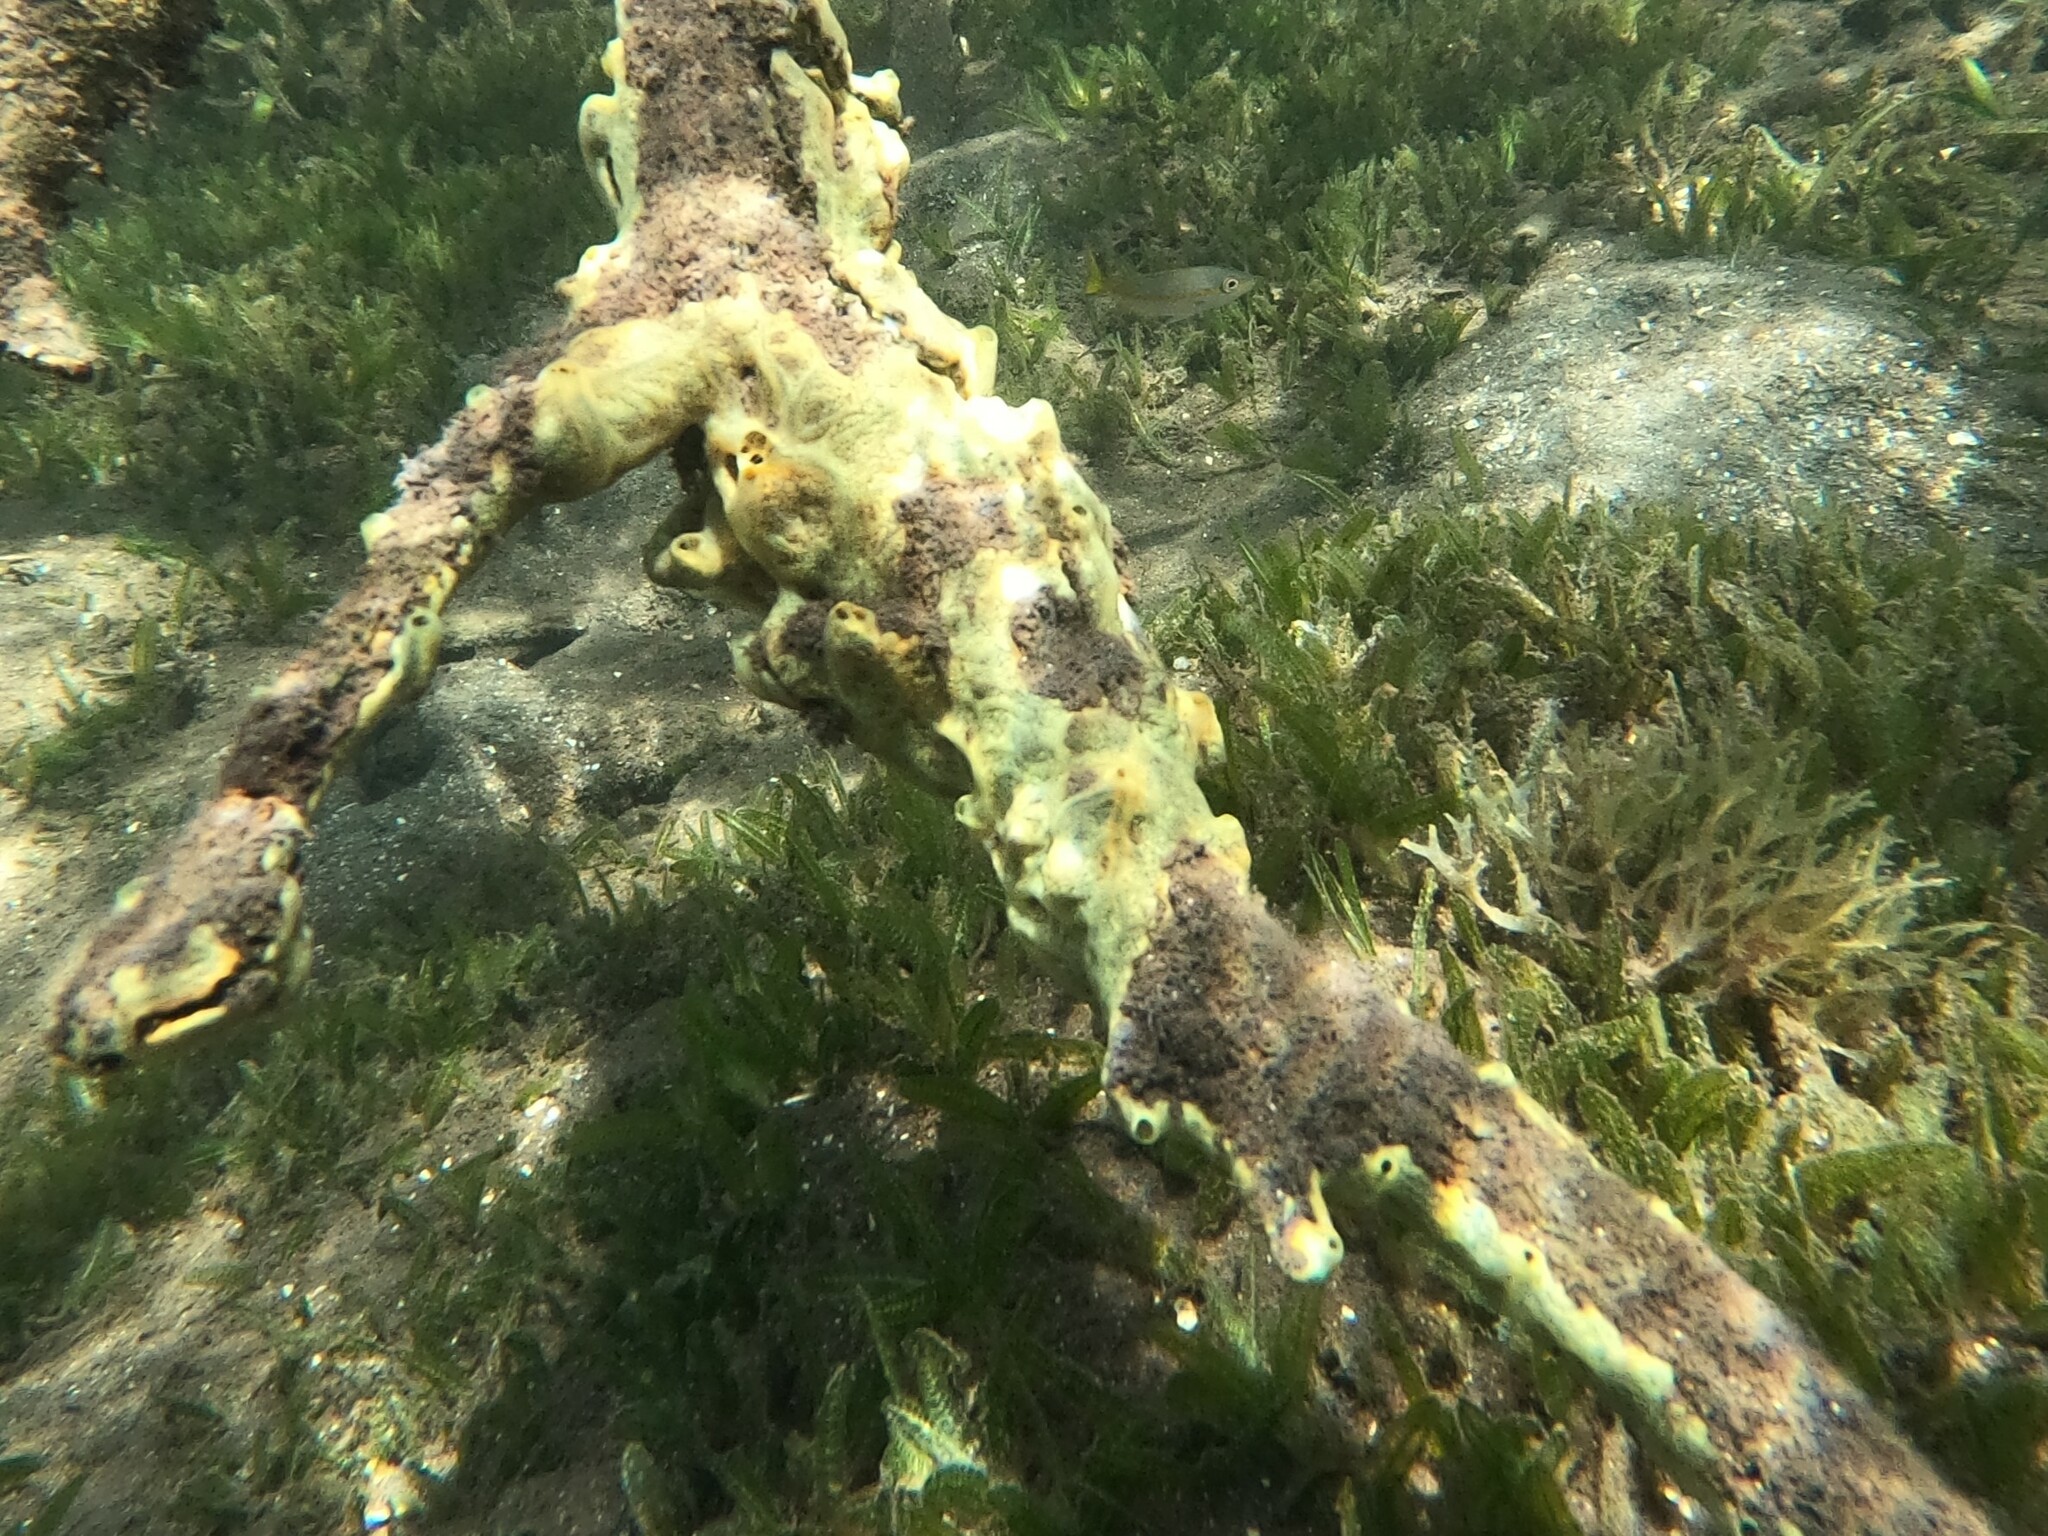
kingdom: Animalia
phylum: Porifera
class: Demospongiae
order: Poecilosclerida
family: Microcionidae
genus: Clathria
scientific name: Clathria venosa
